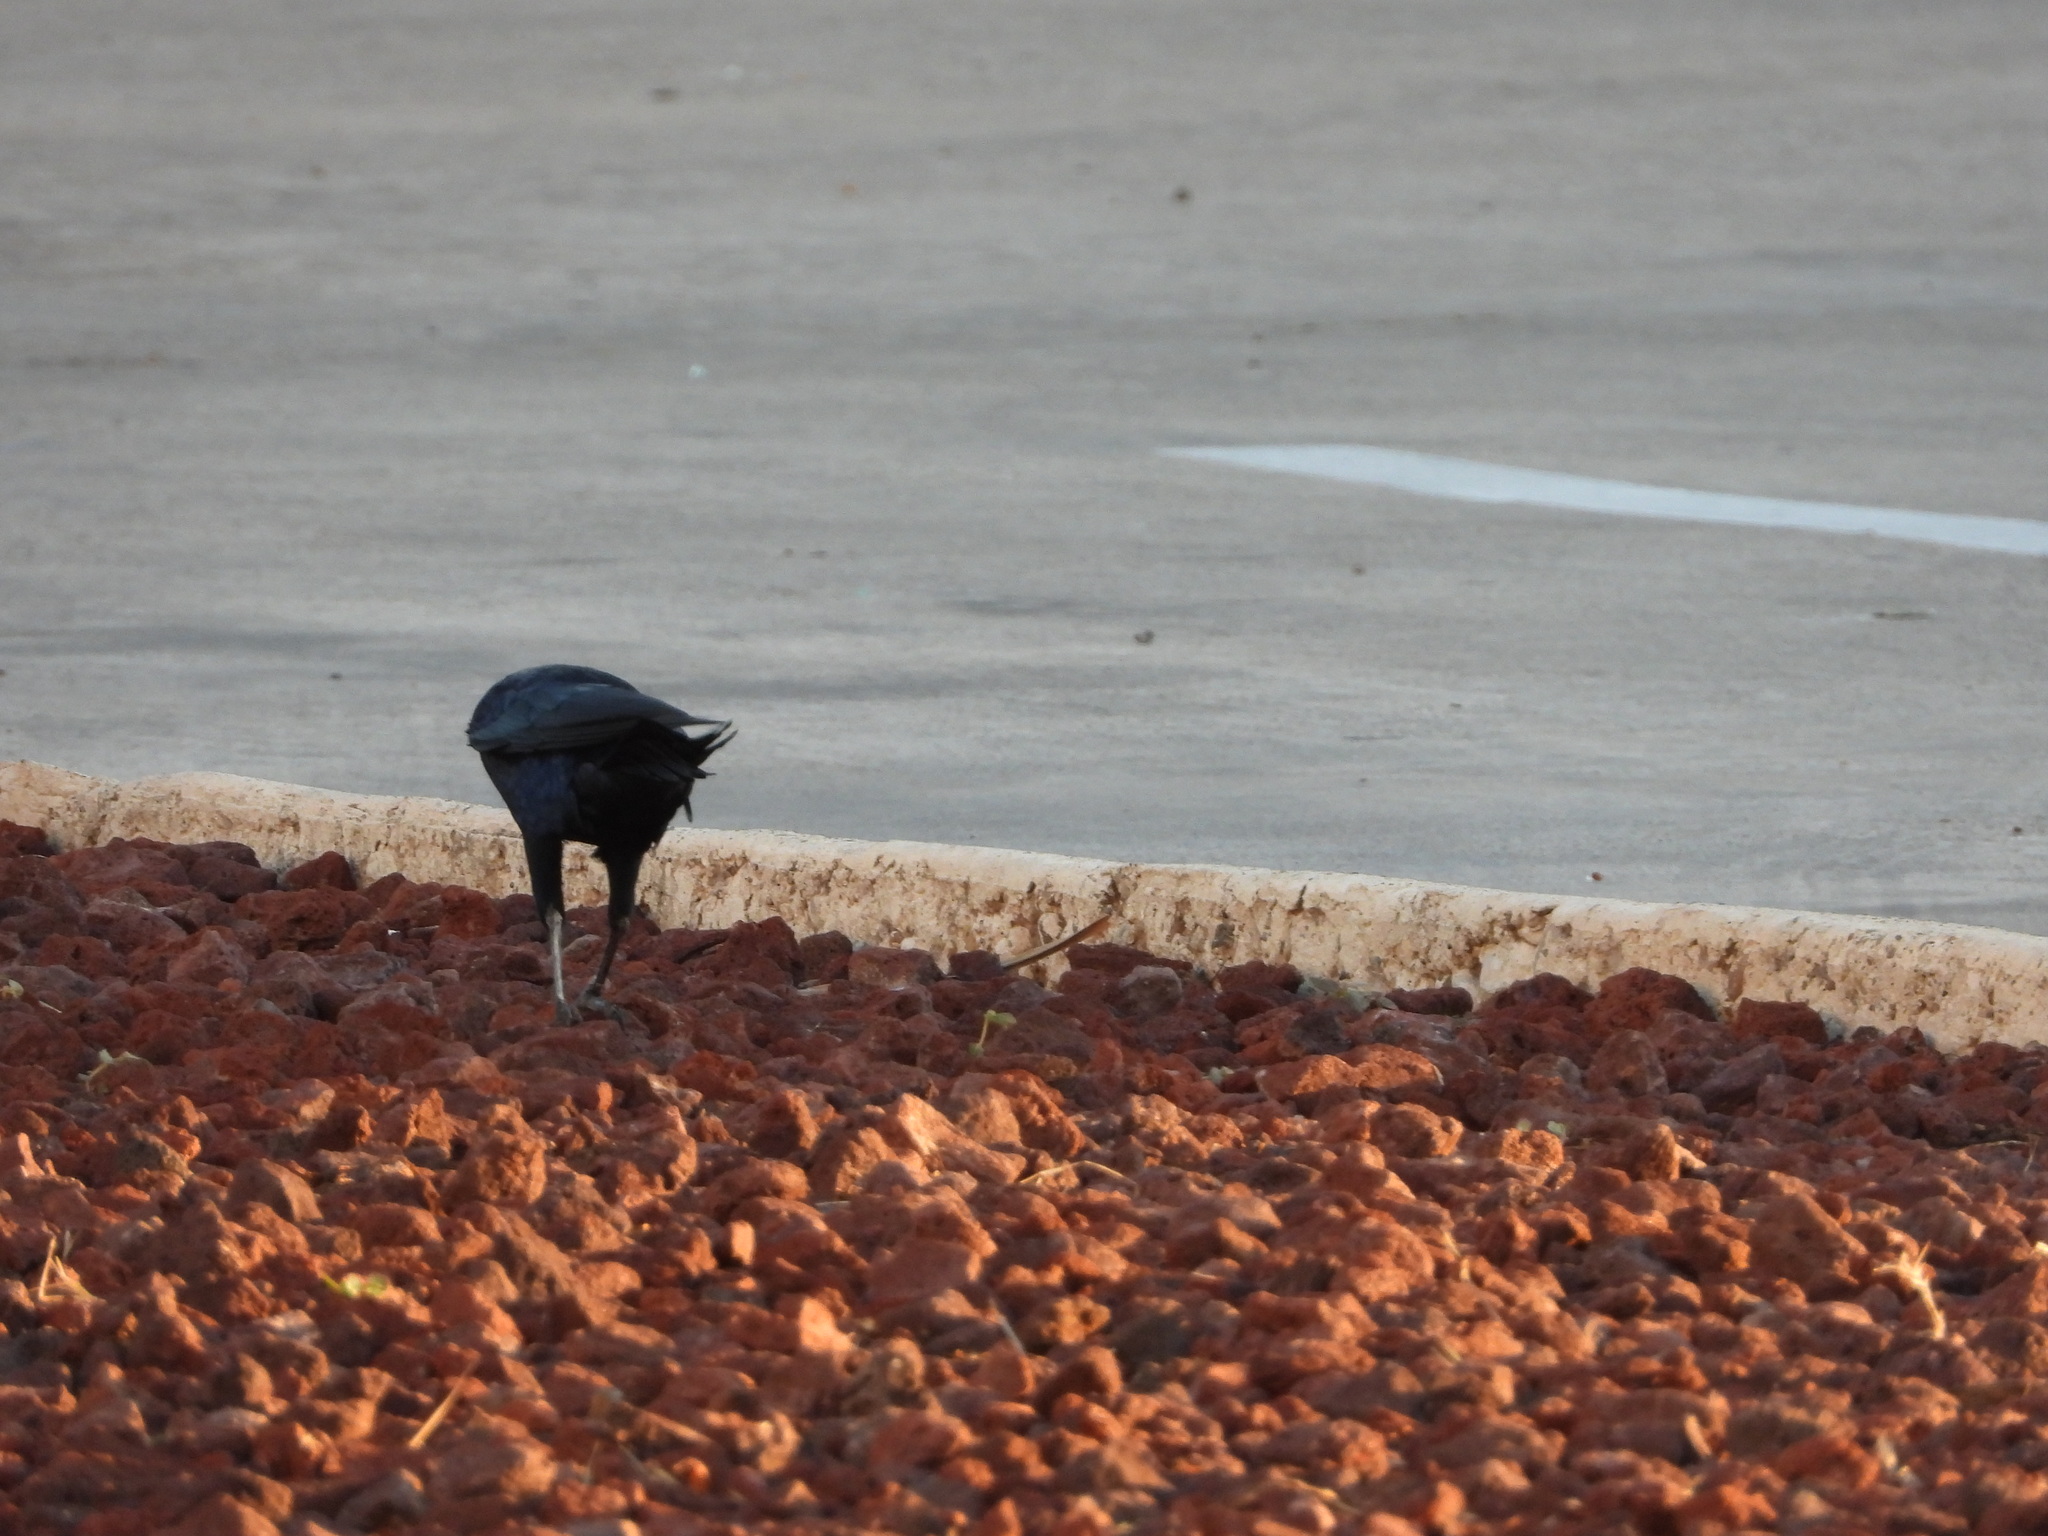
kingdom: Animalia
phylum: Chordata
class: Aves
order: Passeriformes
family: Icteridae
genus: Quiscalus
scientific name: Quiscalus mexicanus
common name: Great-tailed grackle
